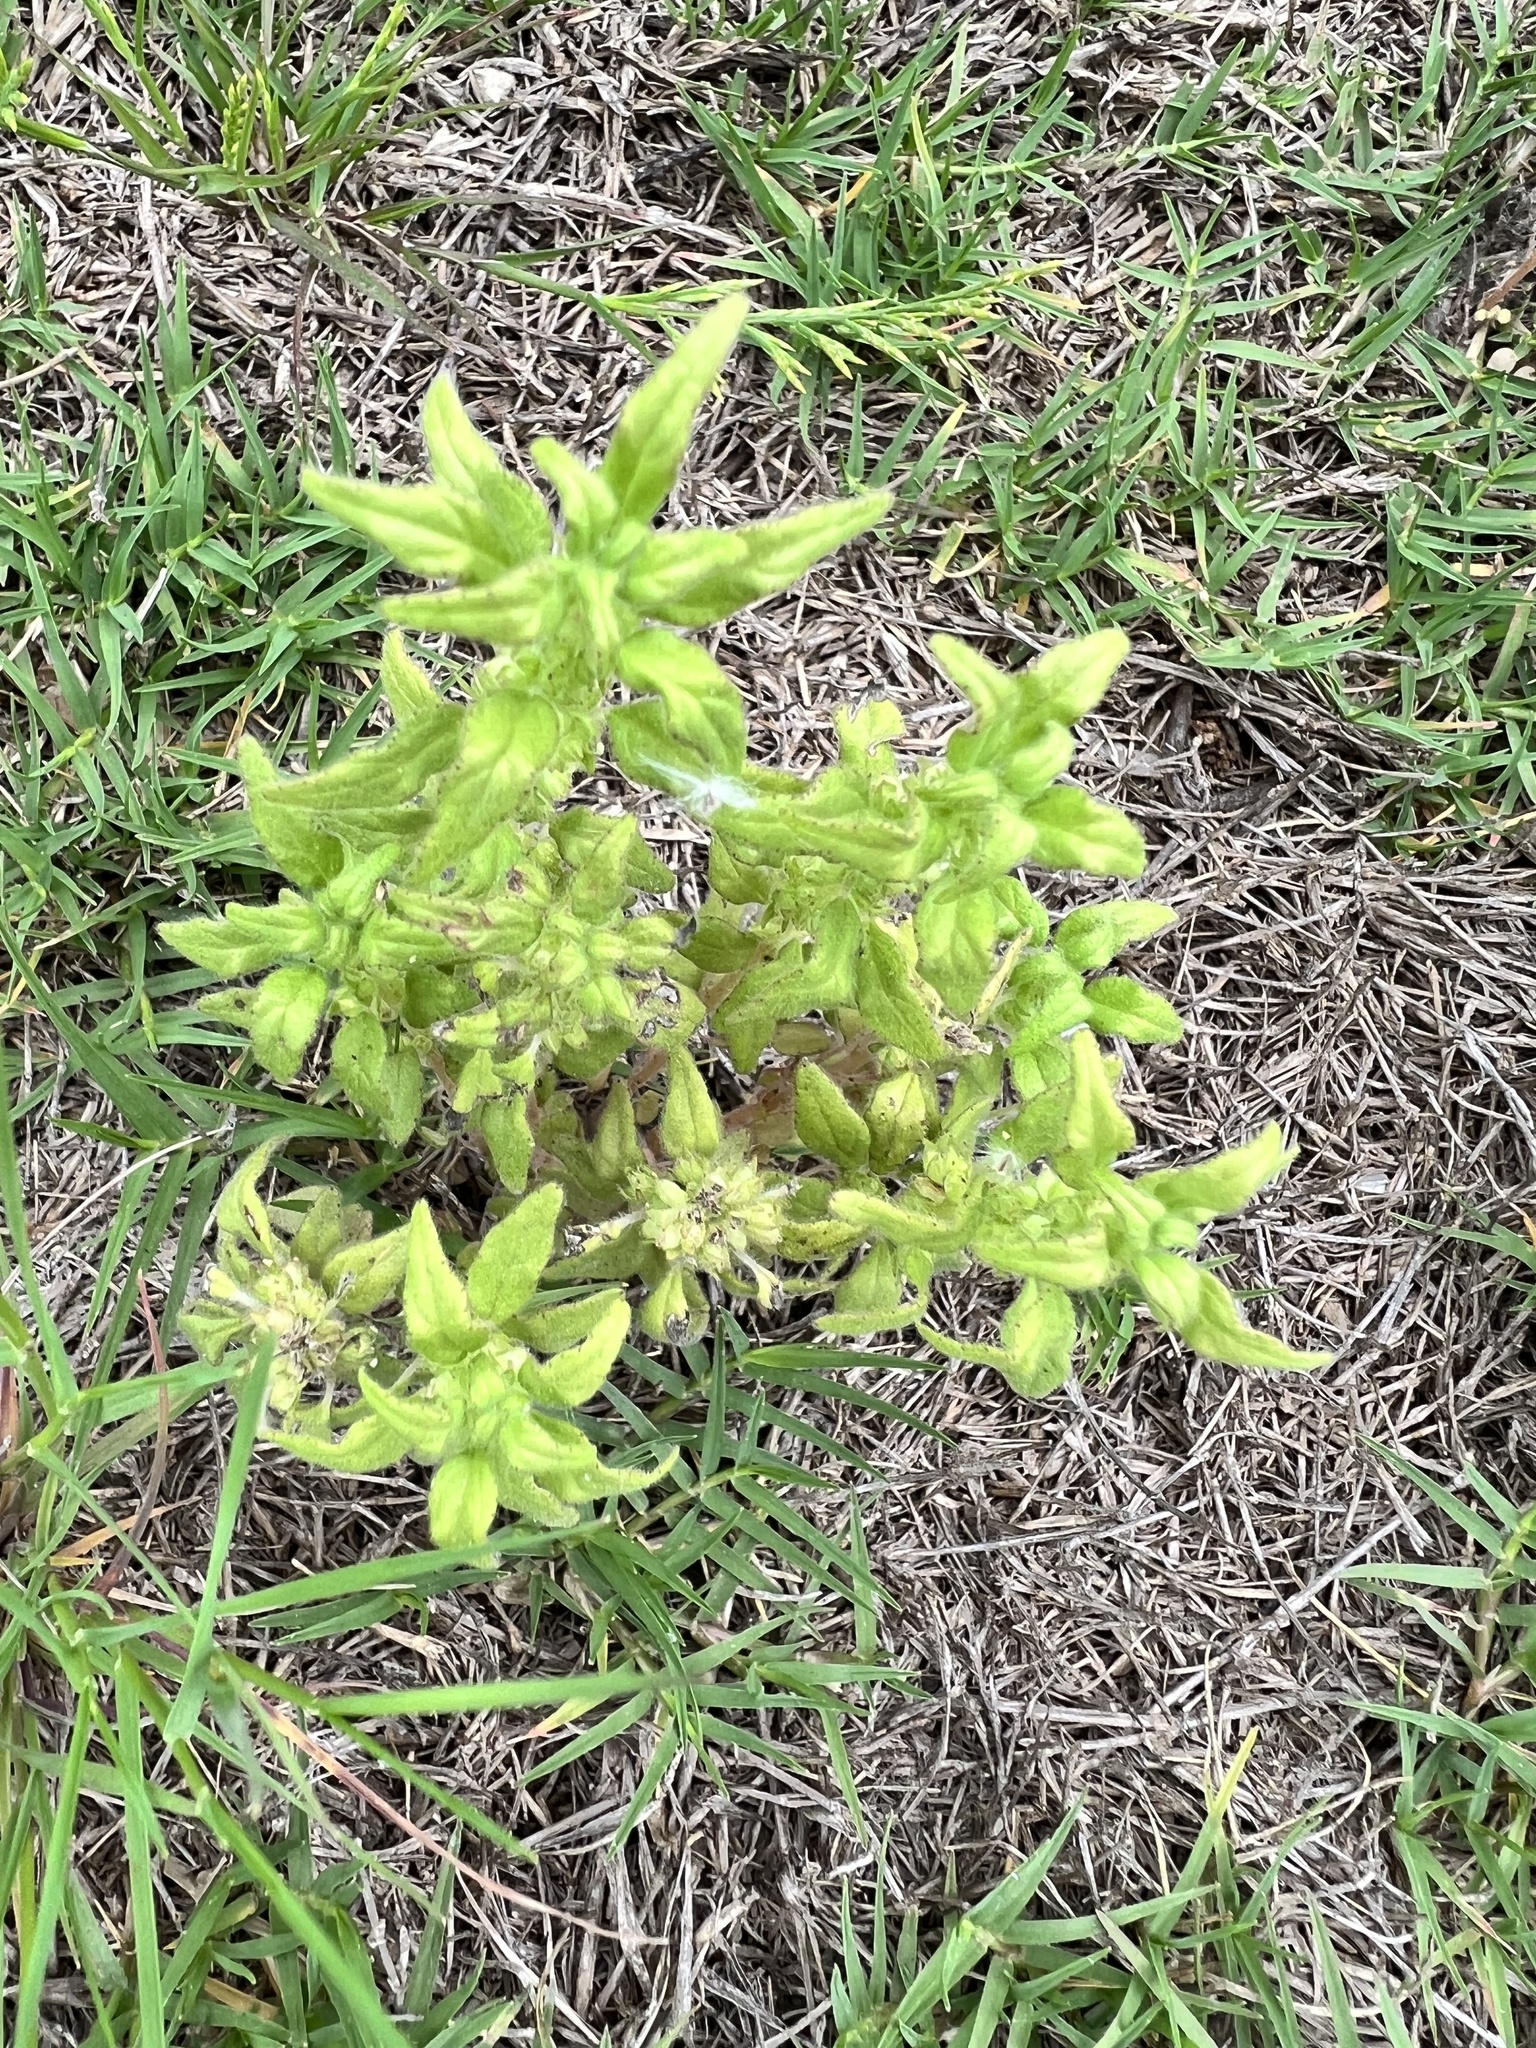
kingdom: Plantae
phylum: Tracheophyta
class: Magnoliopsida
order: Rosales
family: Urticaceae
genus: Parietaria
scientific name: Parietaria pensylvanica
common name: Pennsylvania pellitory
